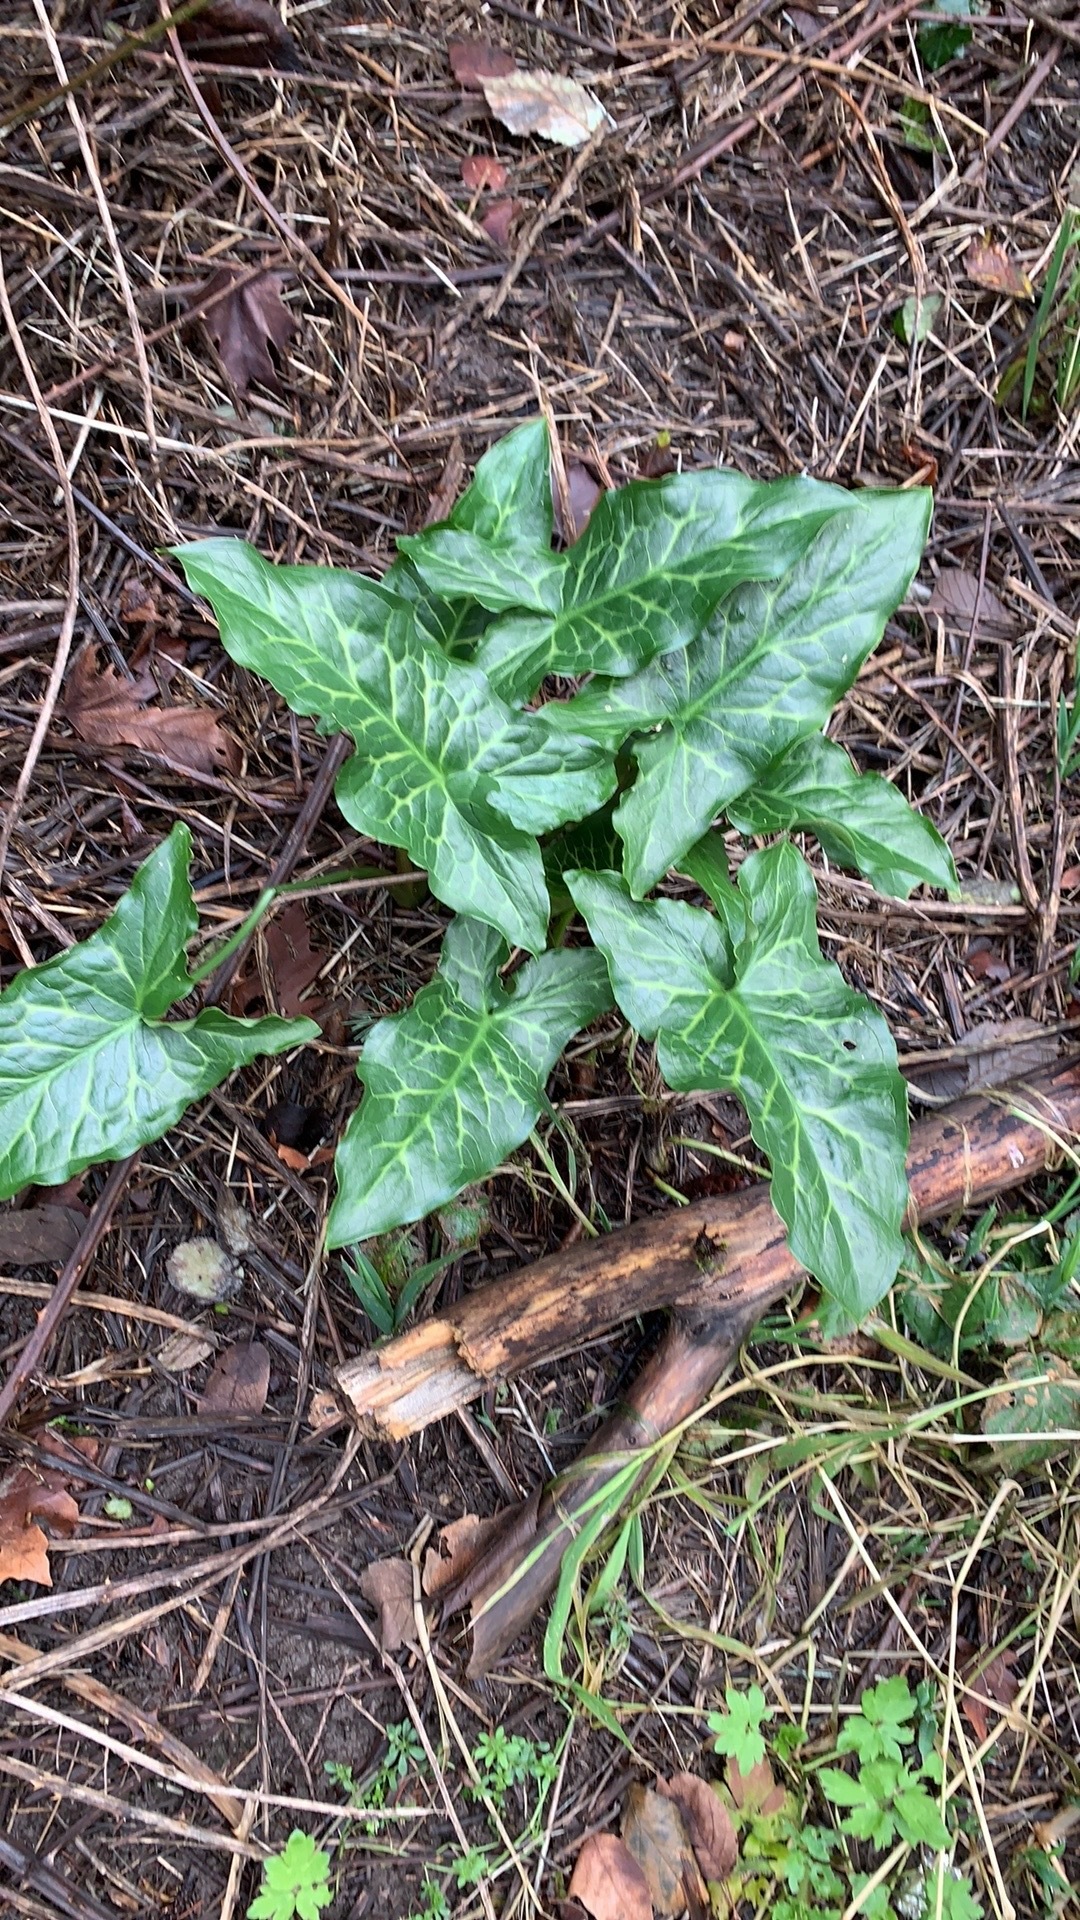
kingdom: Plantae
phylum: Tracheophyta
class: Liliopsida
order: Alismatales
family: Araceae
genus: Arum
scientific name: Arum italicum
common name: Italian lords-and-ladies
